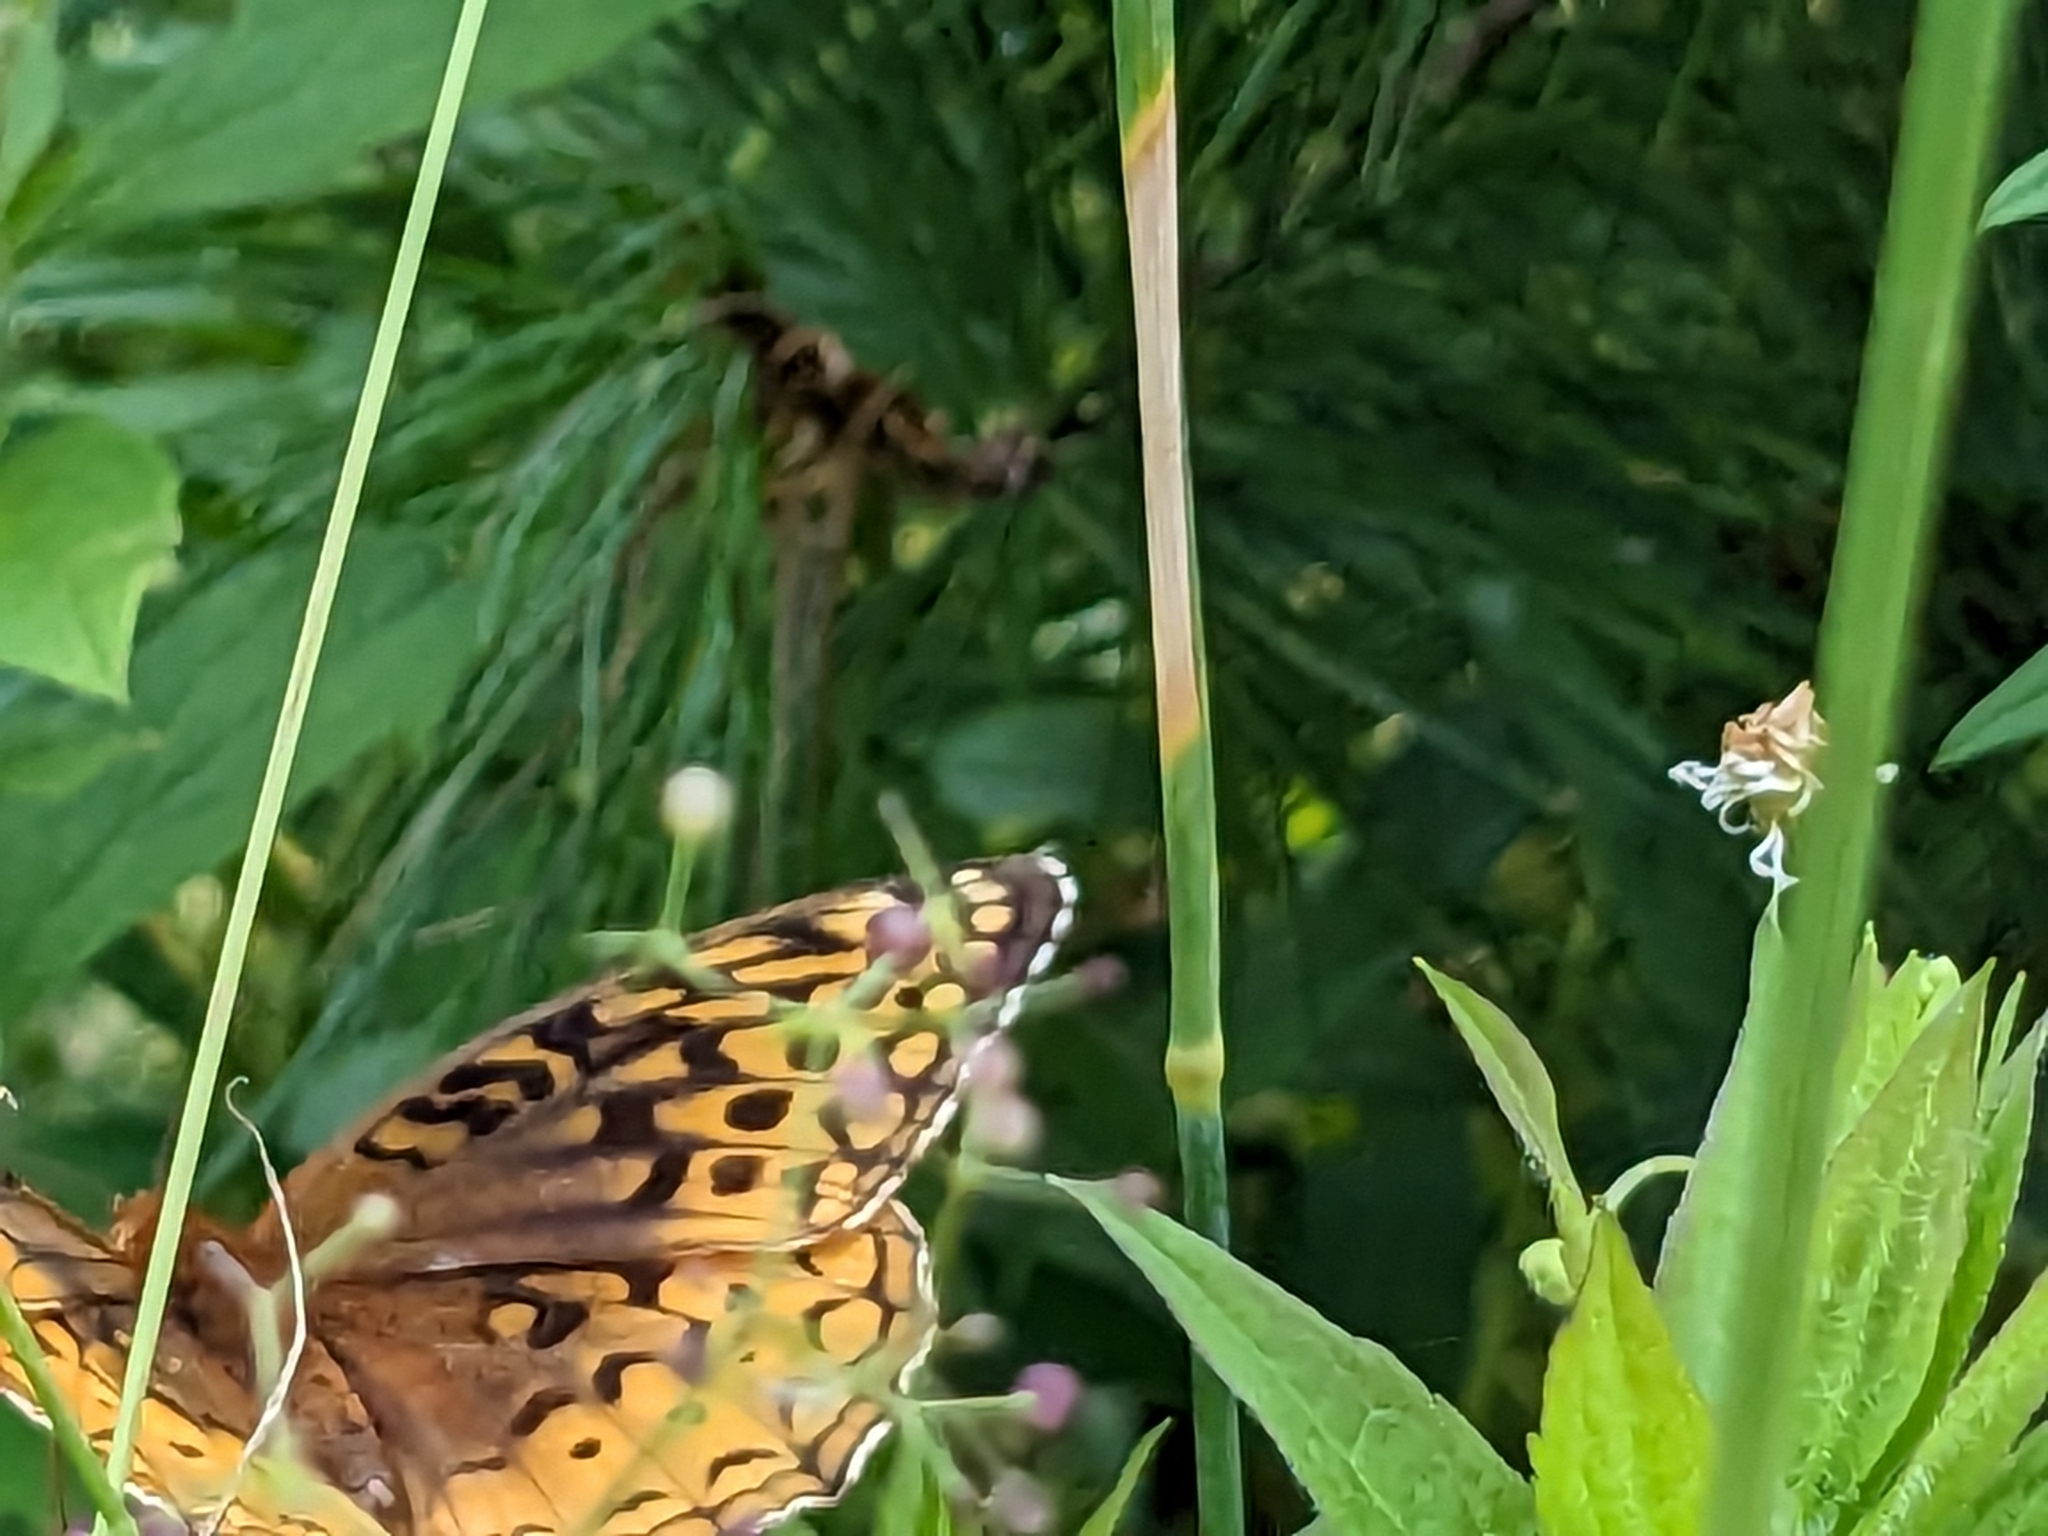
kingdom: Animalia
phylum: Arthropoda
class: Insecta
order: Lepidoptera
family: Nymphalidae
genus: Speyeria
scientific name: Speyeria cybele
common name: Great spangled fritillary
